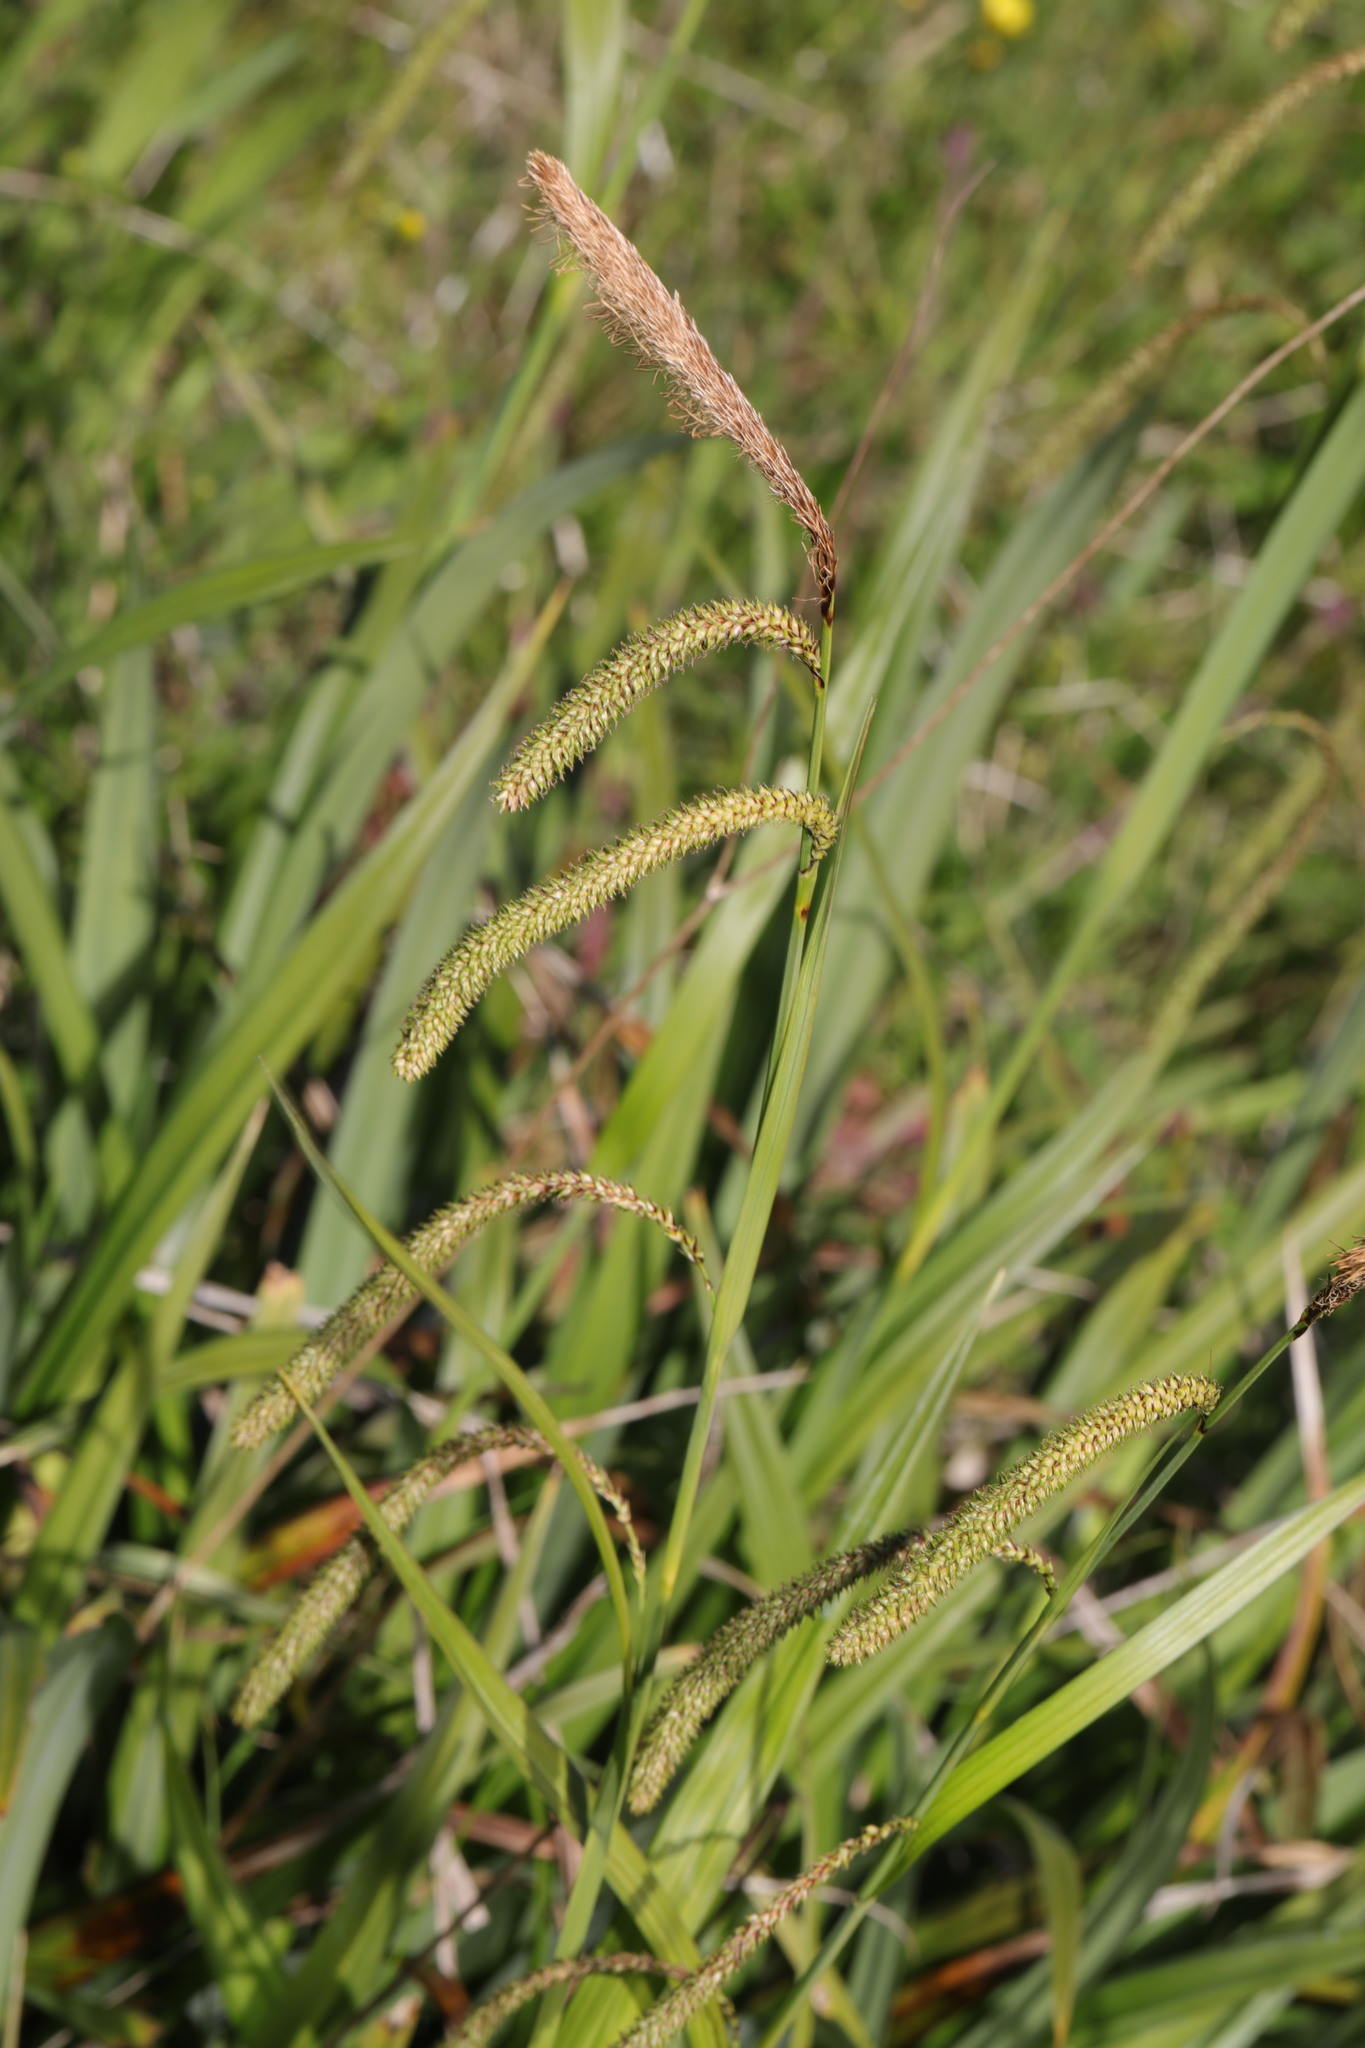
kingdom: Plantae
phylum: Tracheophyta
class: Liliopsida
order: Poales
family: Cyperaceae
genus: Carex
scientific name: Carex pendula
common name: Pendulous sedge
